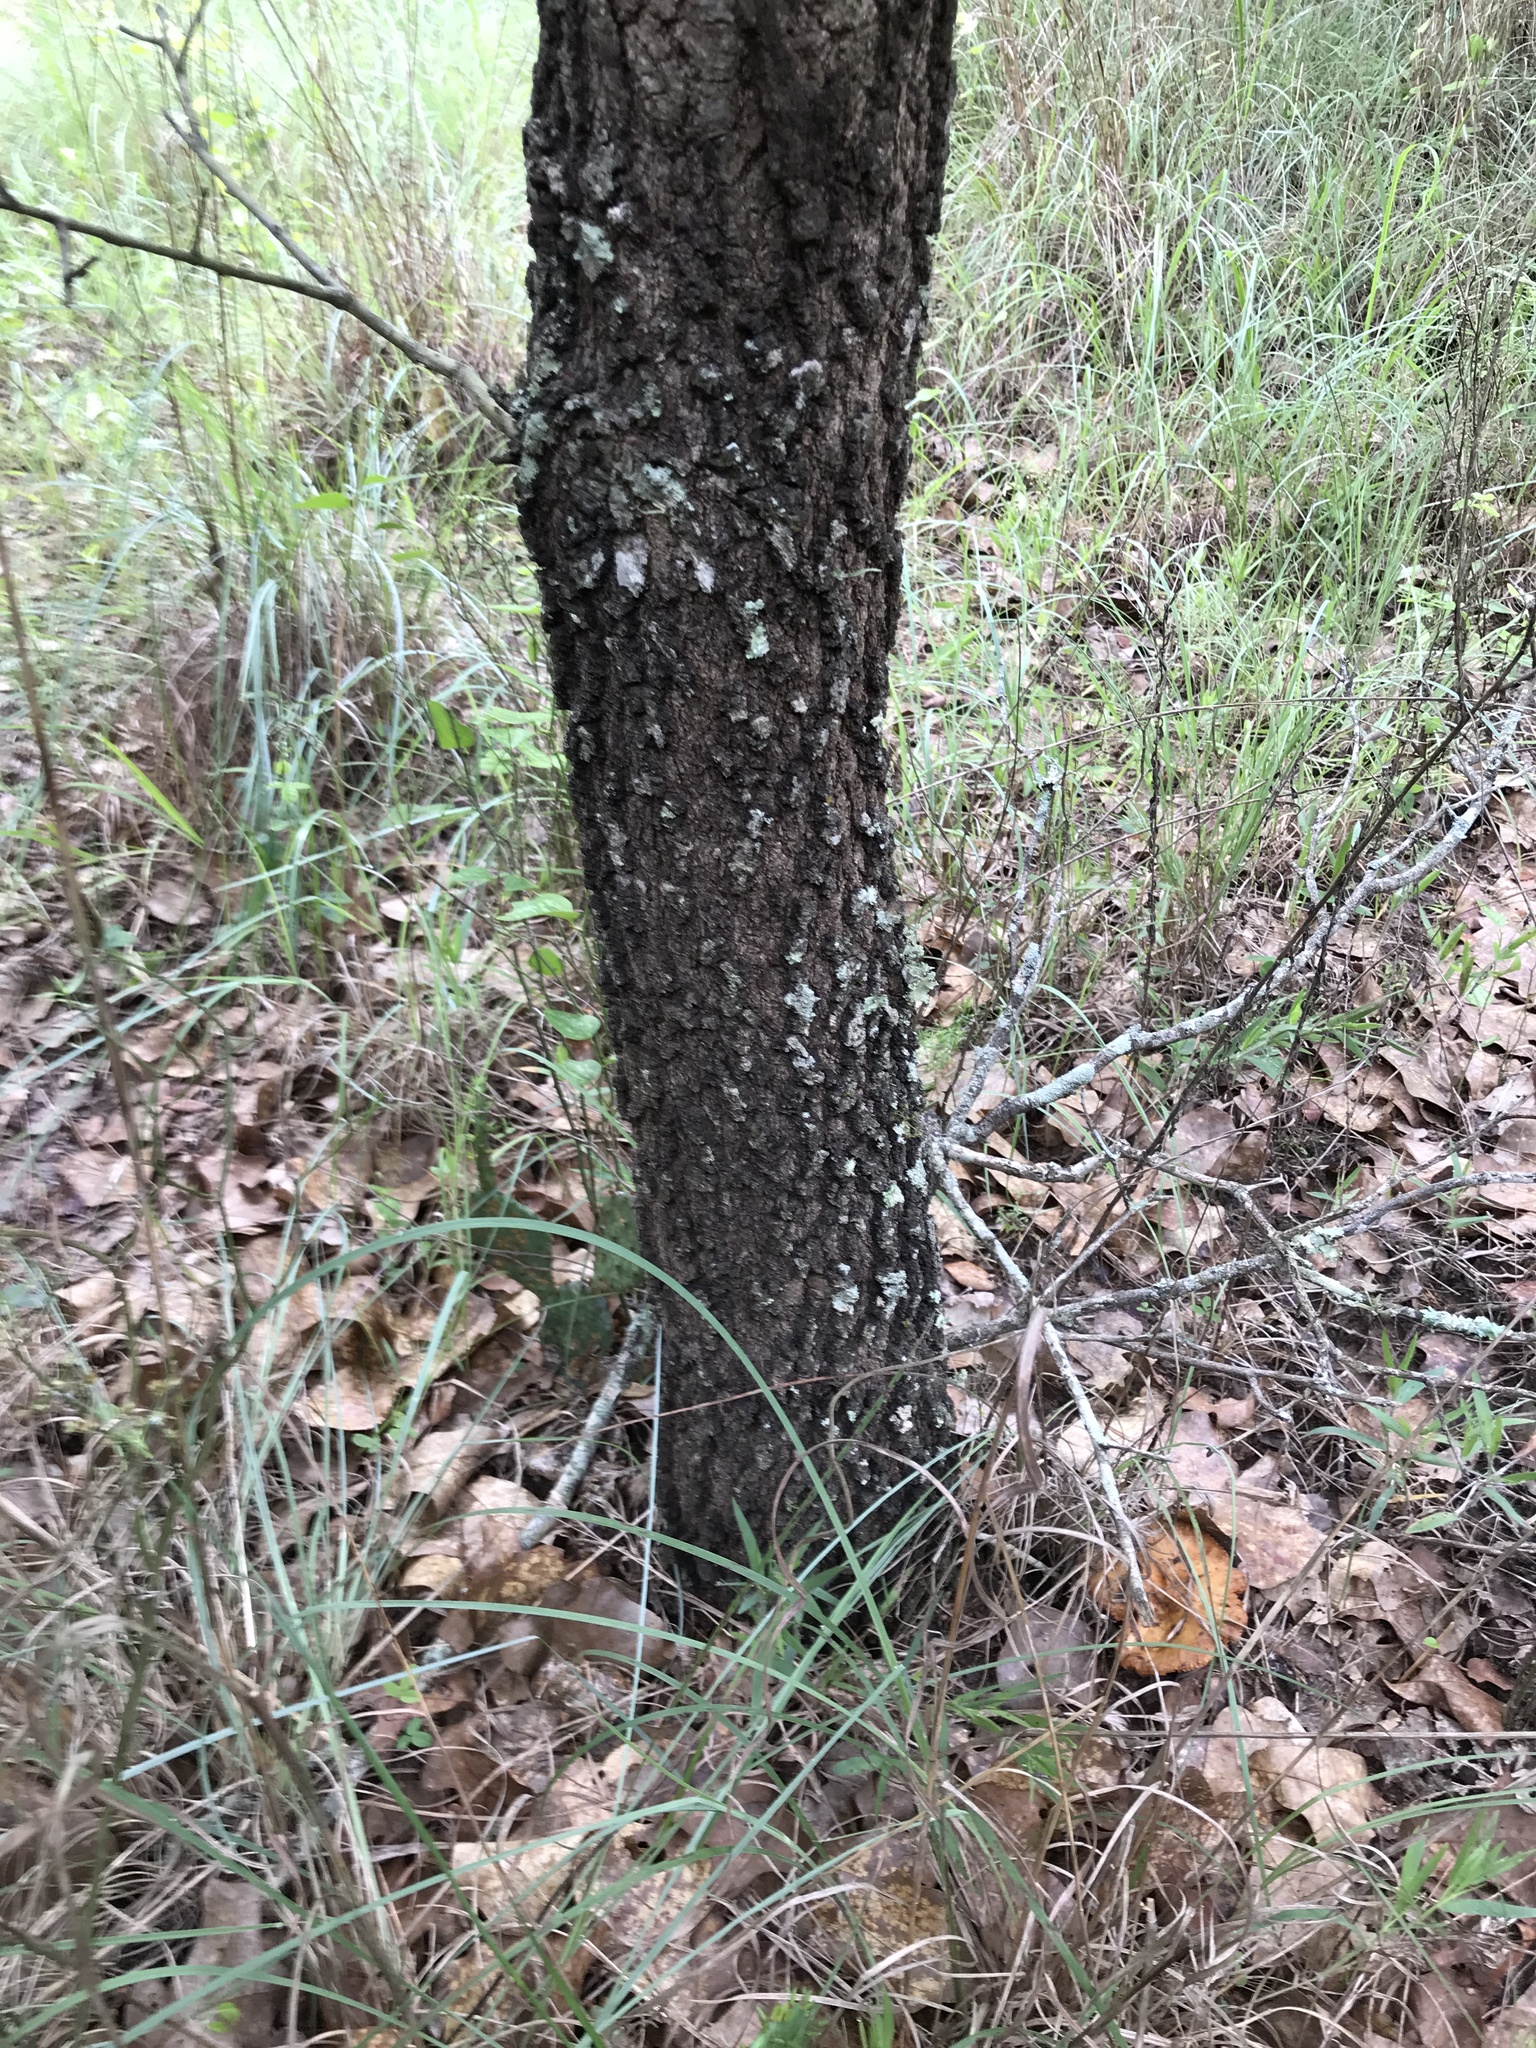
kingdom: Plantae
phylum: Tracheophyta
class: Magnoliopsida
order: Fagales
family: Fagaceae
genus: Quercus
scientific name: Quercus marilandica
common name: Blackjack oak
